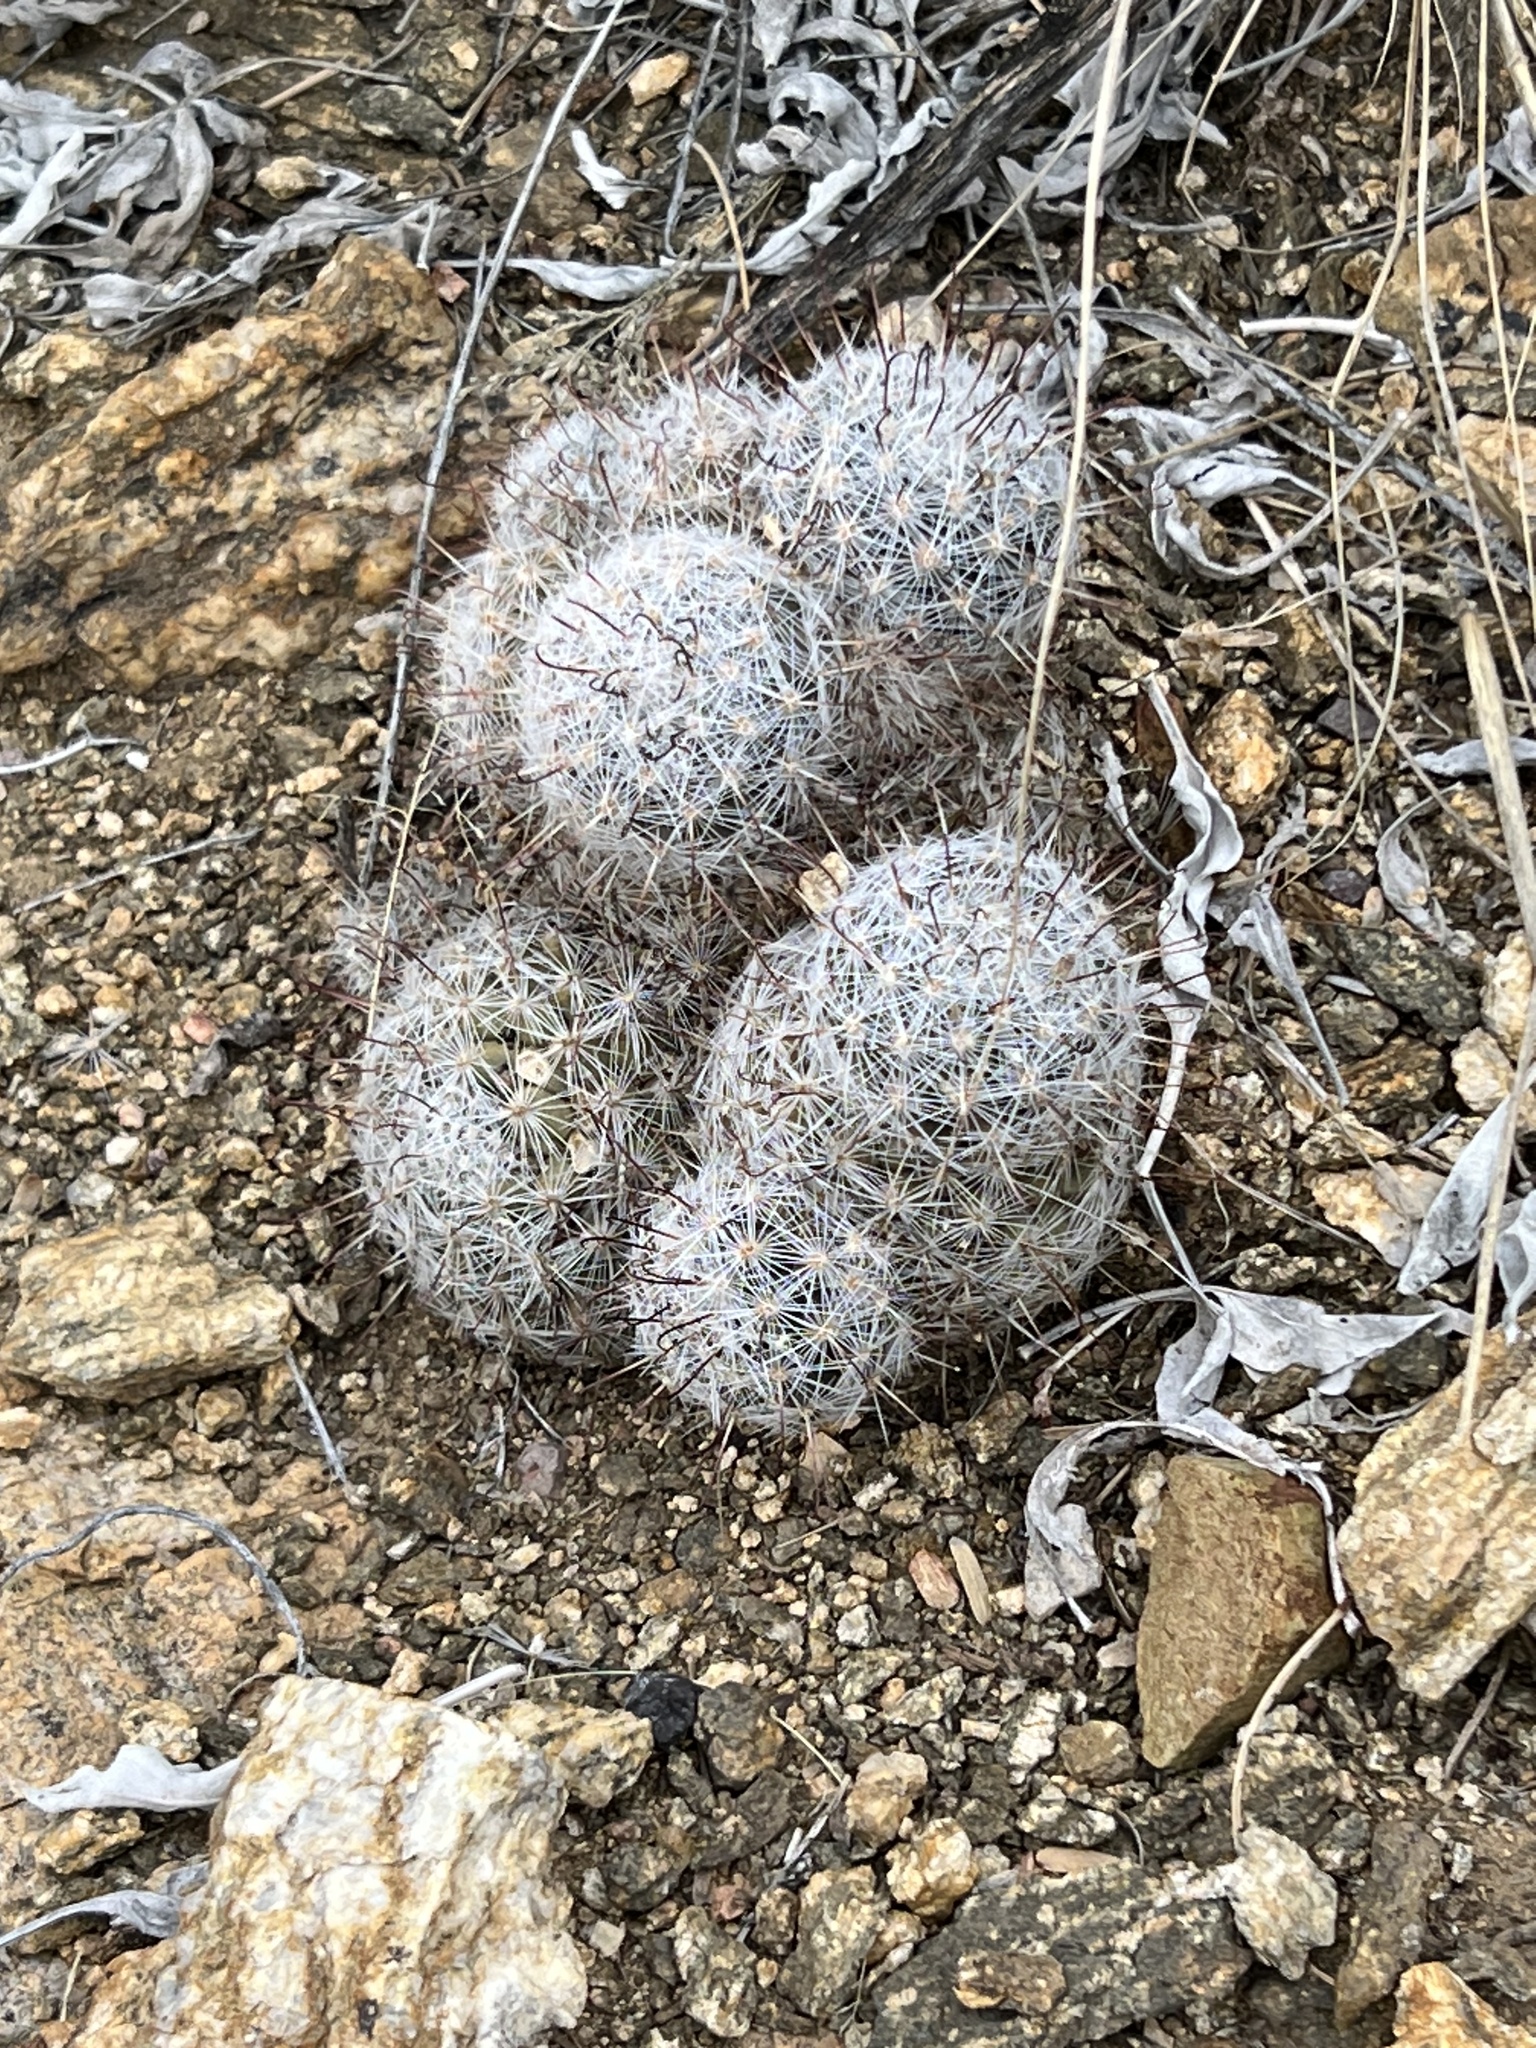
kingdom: Plantae
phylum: Tracheophyta
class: Magnoliopsida
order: Caryophyllales
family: Cactaceae
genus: Cochemiea
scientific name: Cochemiea grahamii
